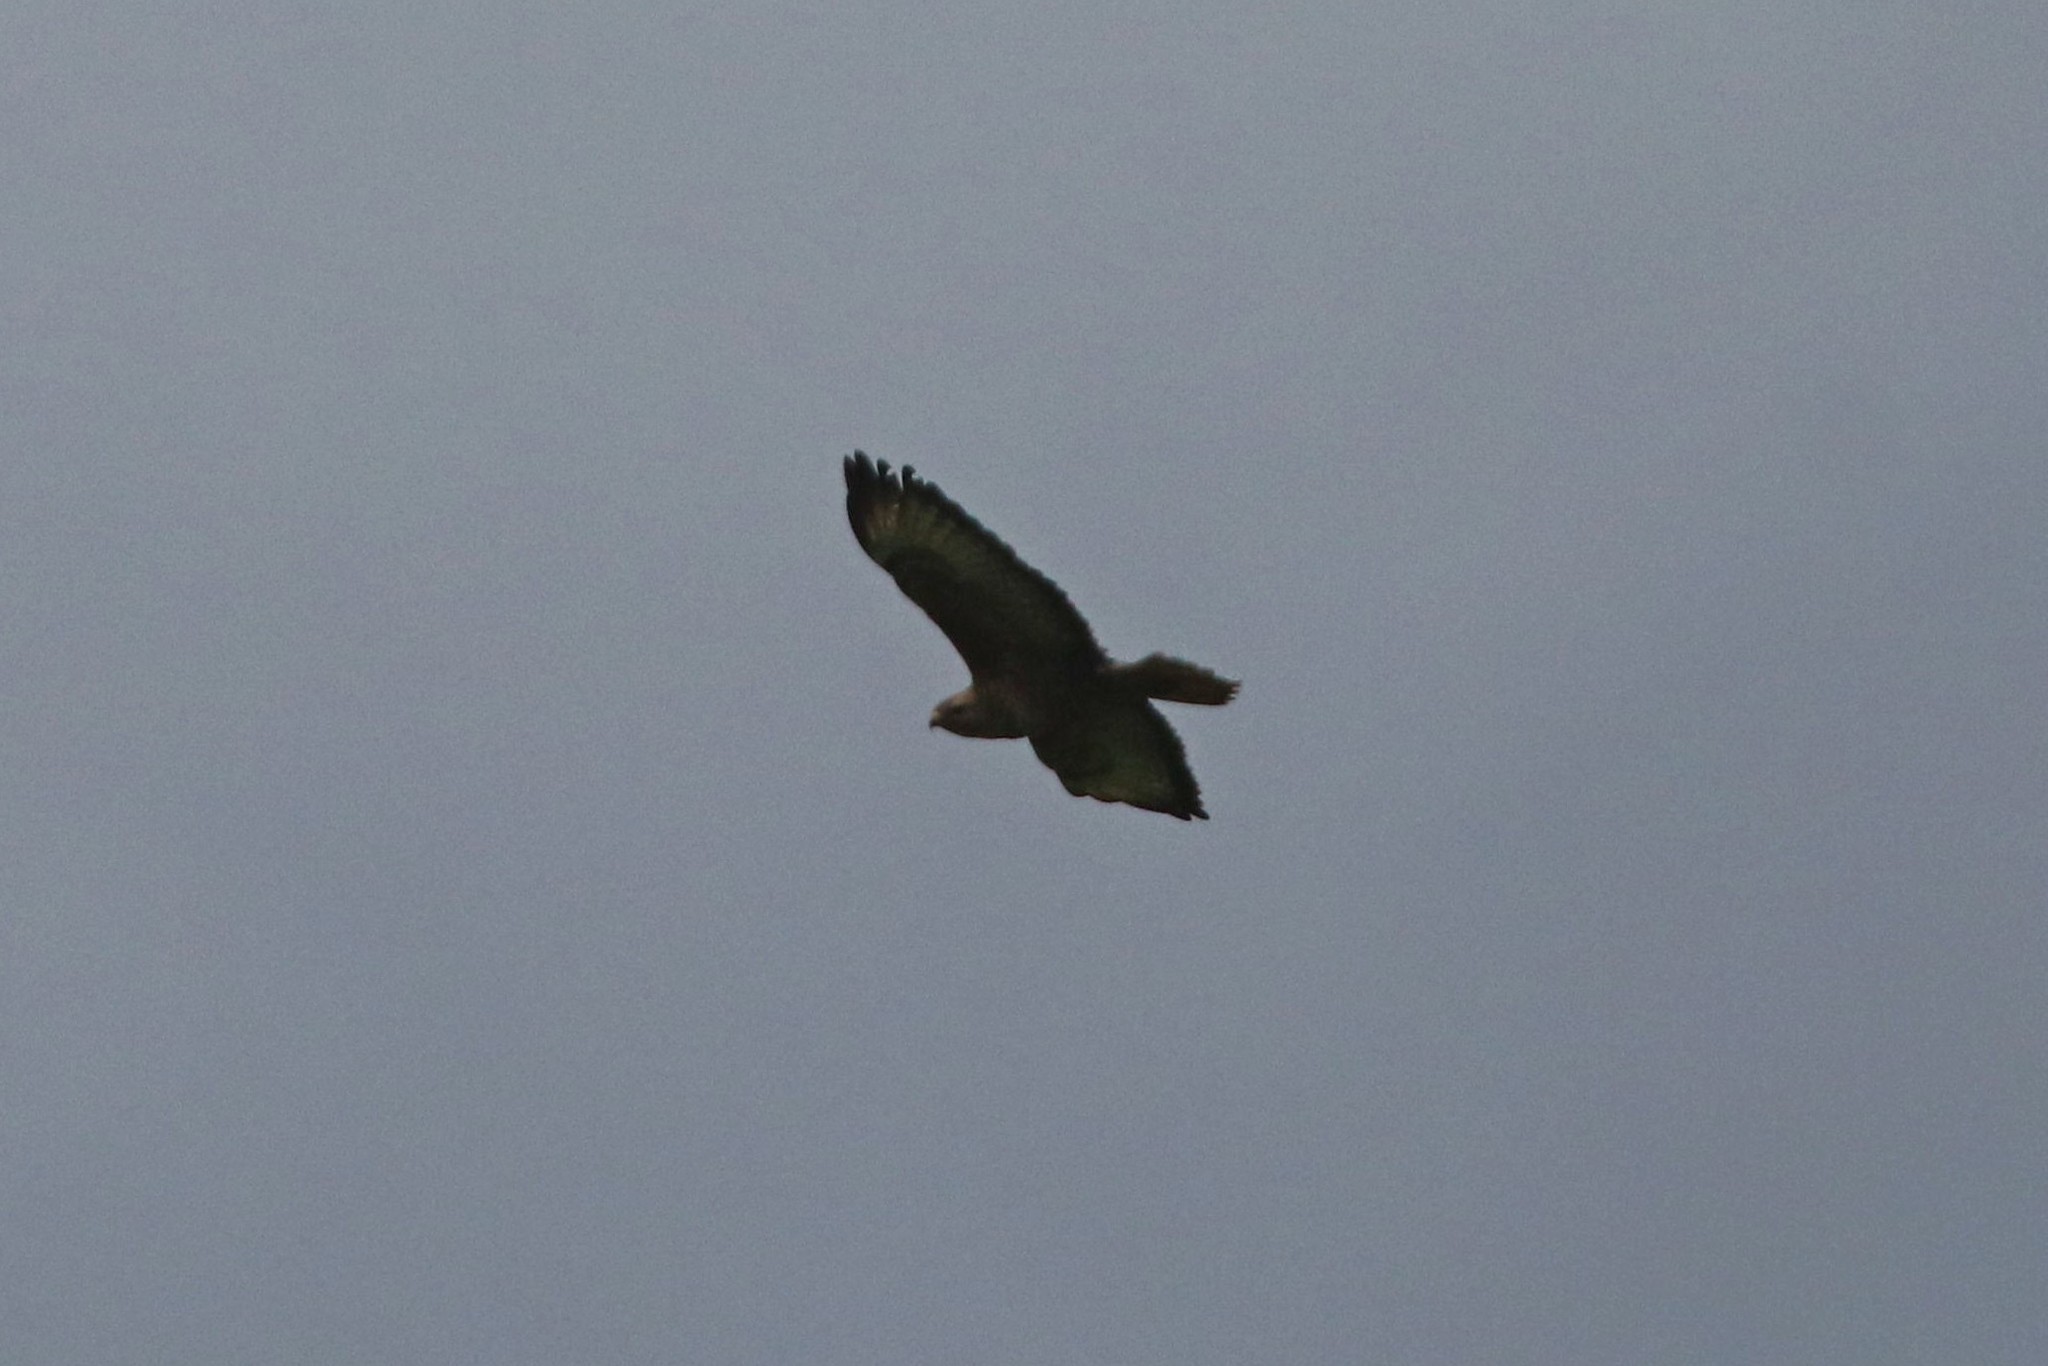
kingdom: Animalia
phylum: Chordata
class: Aves
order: Accipitriformes
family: Accipitridae
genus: Buteo
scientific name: Buteo buteo
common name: Common buzzard
